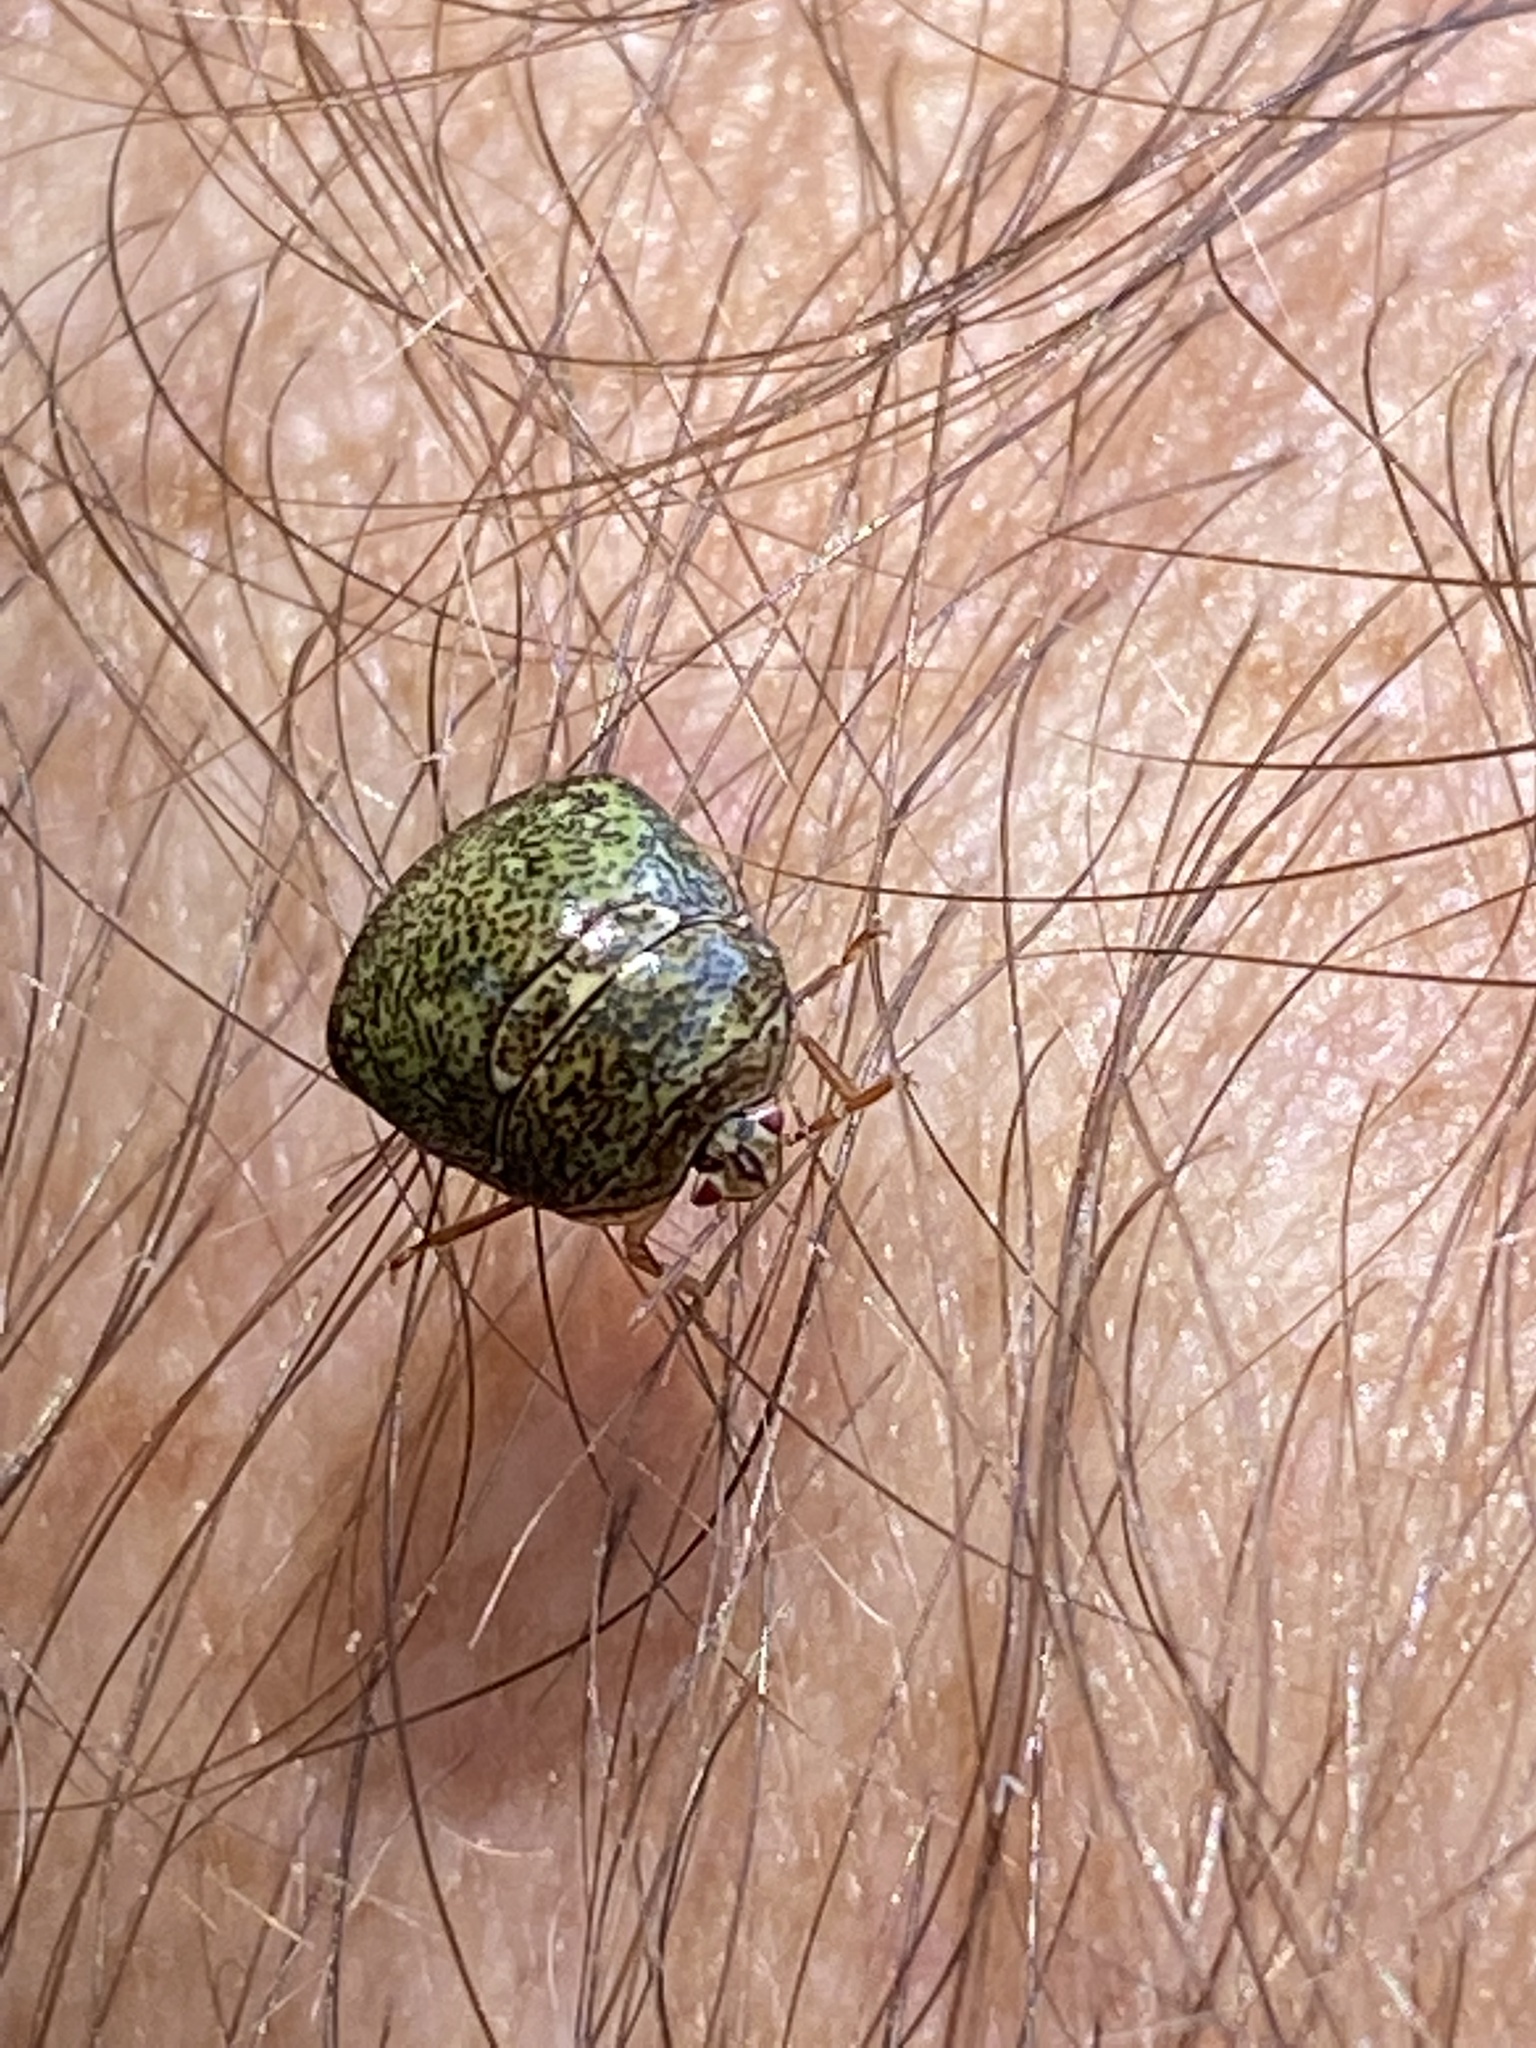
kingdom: Animalia
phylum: Arthropoda
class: Insecta
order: Hemiptera
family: Plataspidae
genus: Megacopta
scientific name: Megacopta cribraria
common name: Bean plataspid
